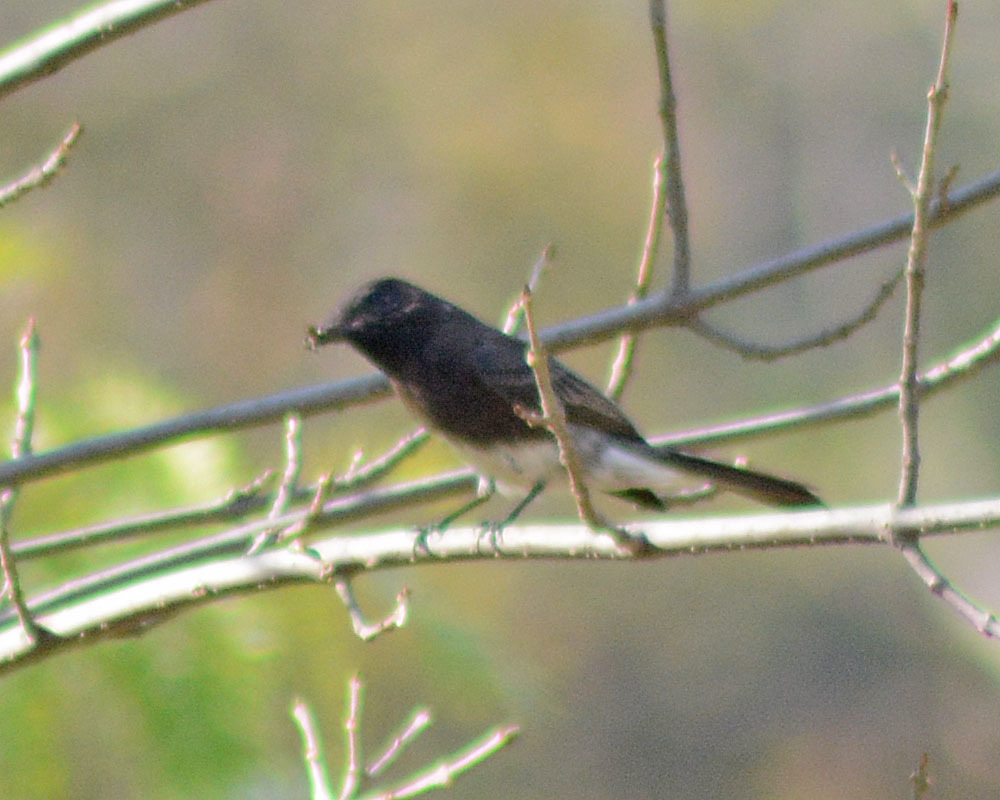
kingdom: Animalia
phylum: Chordata
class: Aves
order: Passeriformes
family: Tyrannidae
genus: Sayornis
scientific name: Sayornis nigricans
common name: Black phoebe
